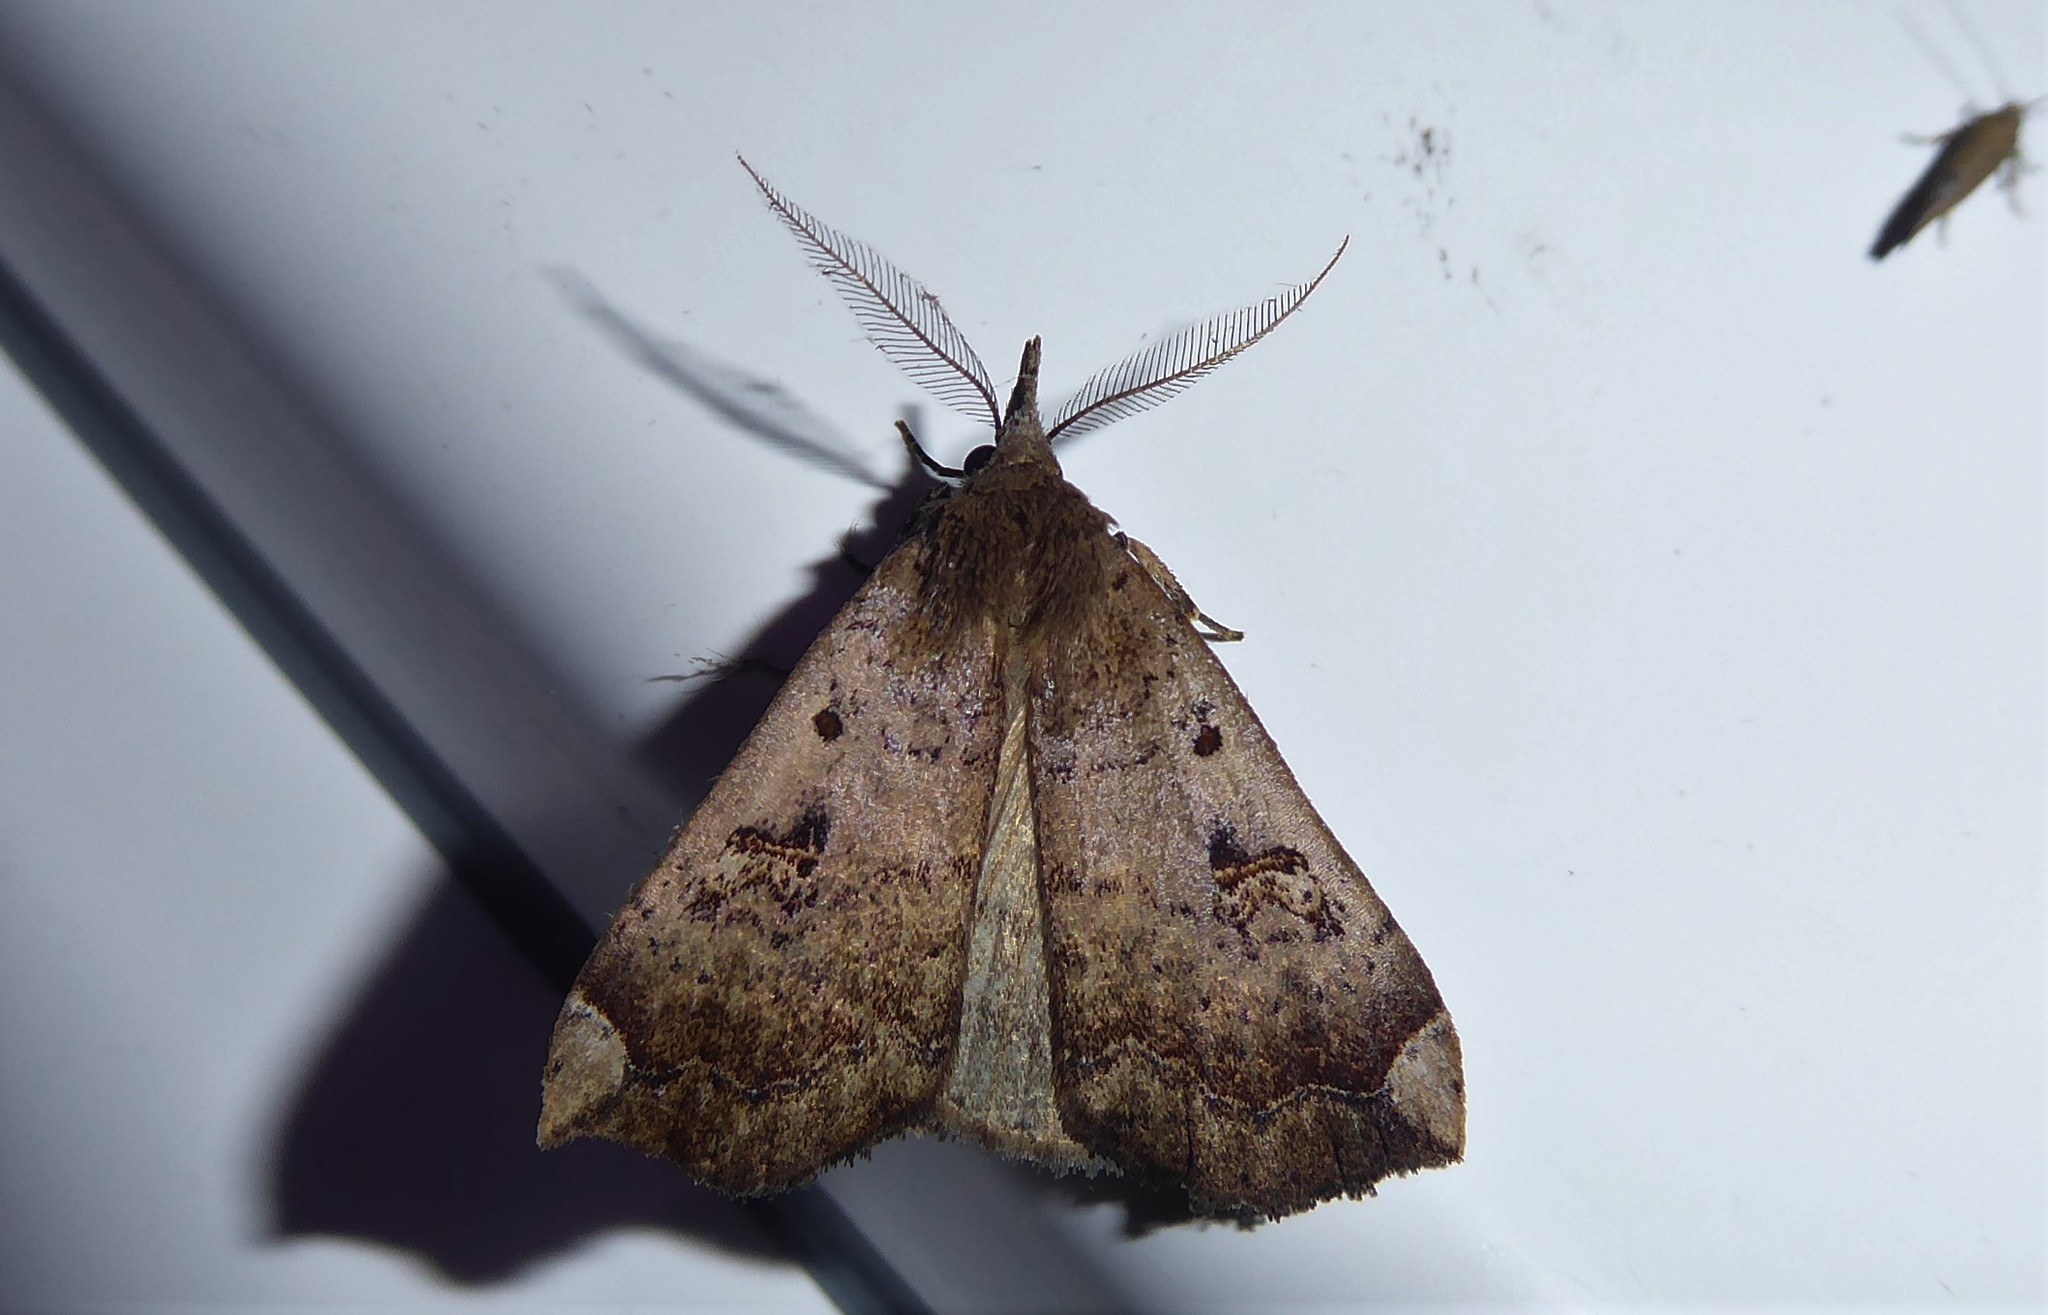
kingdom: Animalia
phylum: Arthropoda
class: Insecta
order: Lepidoptera
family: Erebidae
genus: Rhapsa
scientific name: Rhapsa scotosialis
